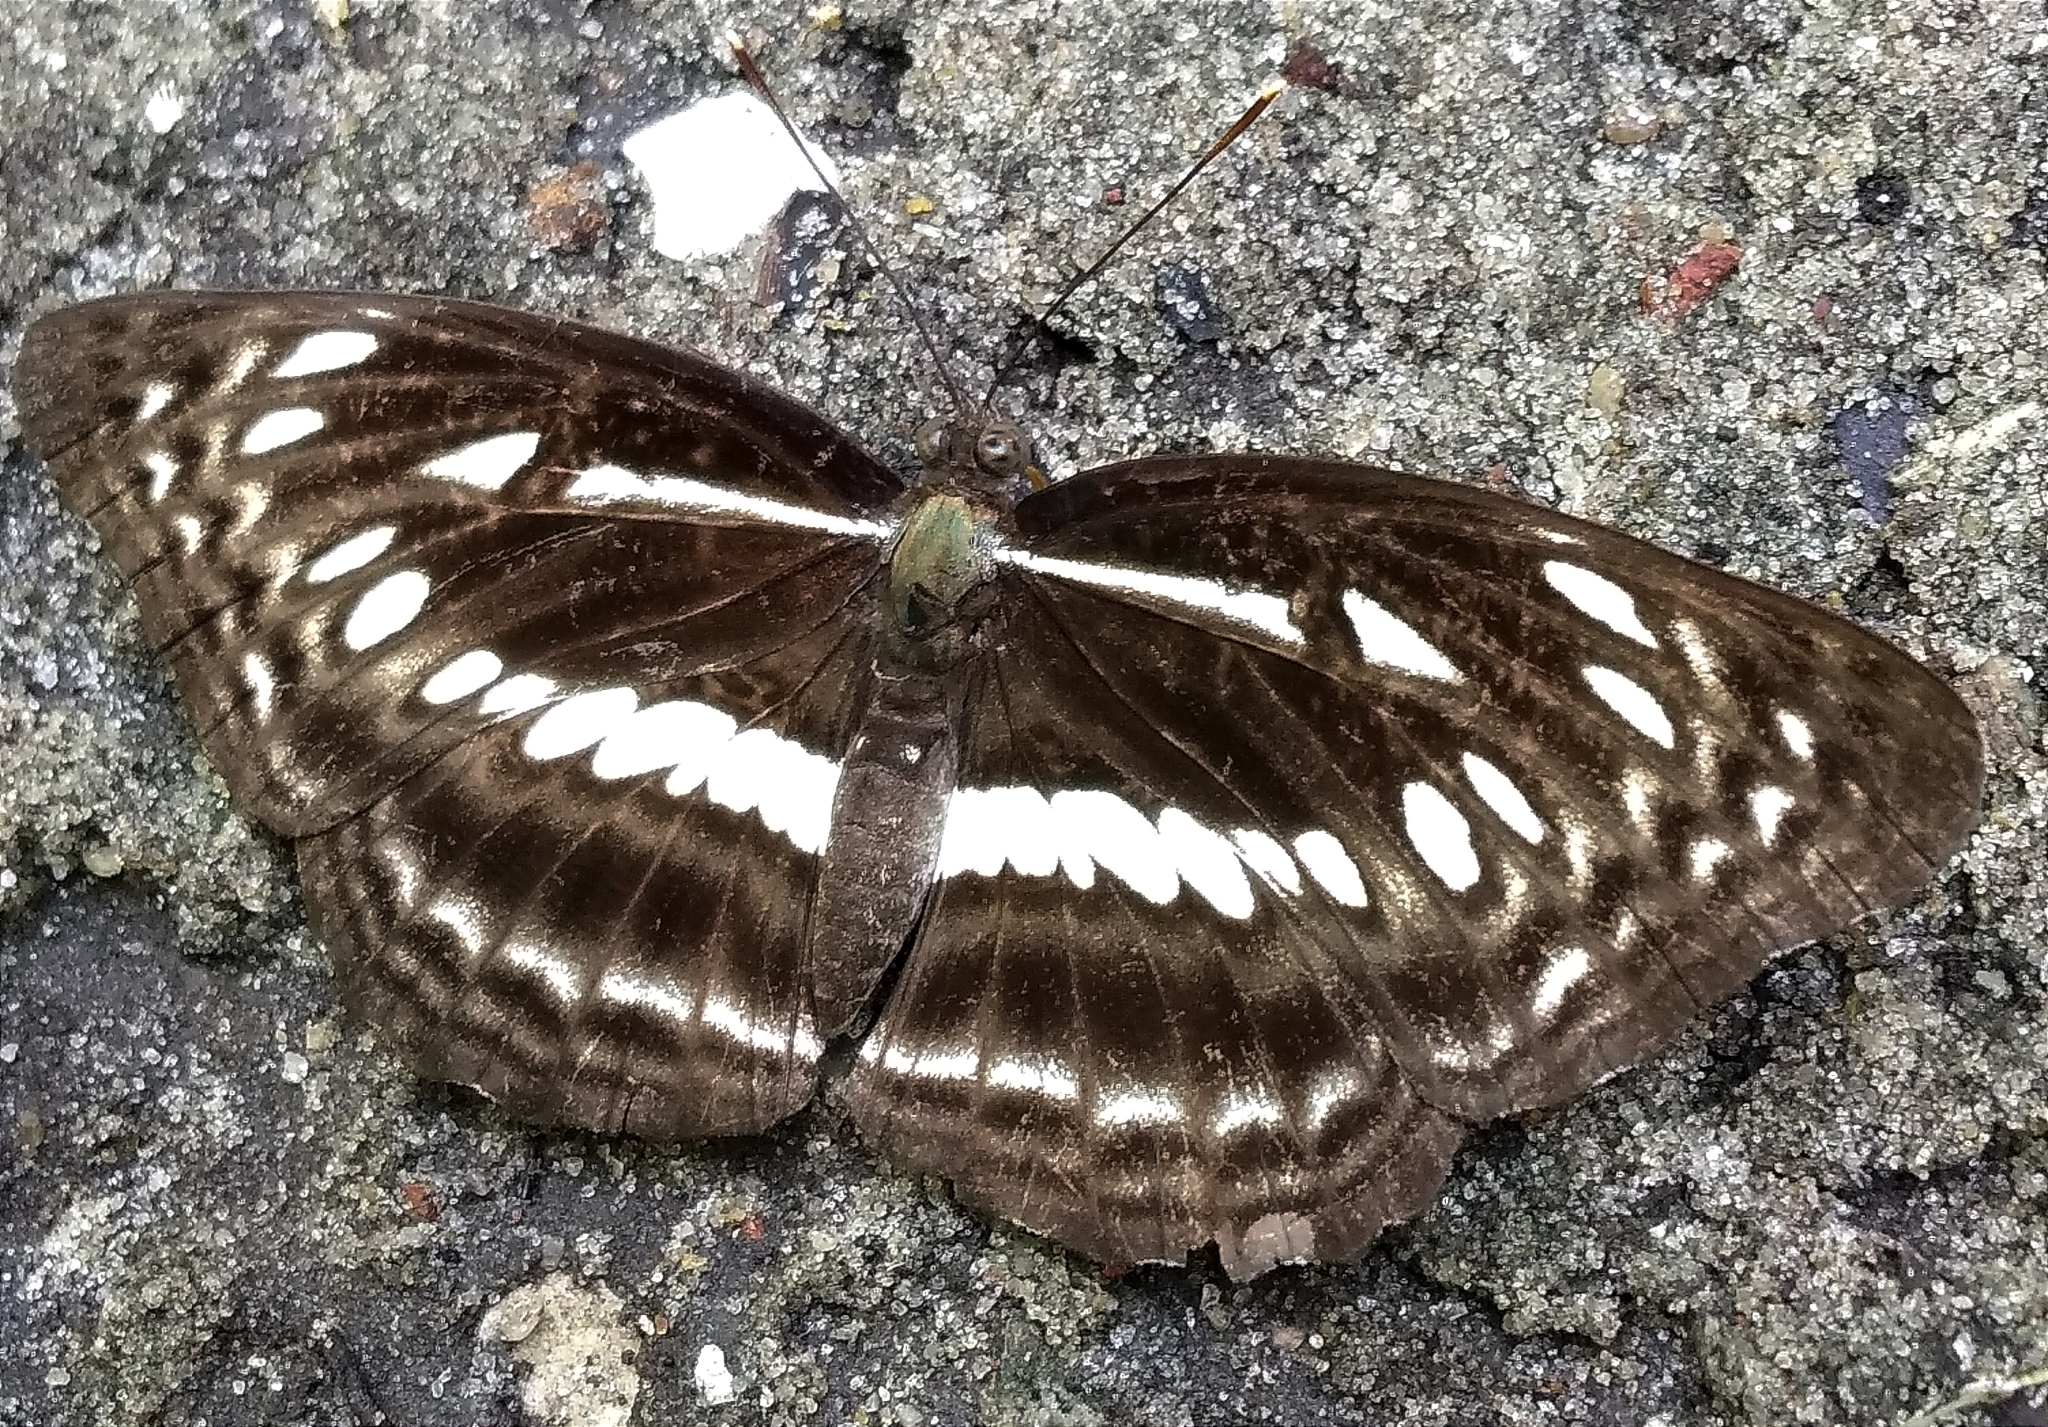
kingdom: Animalia
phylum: Arthropoda
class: Insecta
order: Lepidoptera
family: Nymphalidae
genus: Neptis
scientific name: Neptis jumbah
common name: Chestnut-streaked sailer
